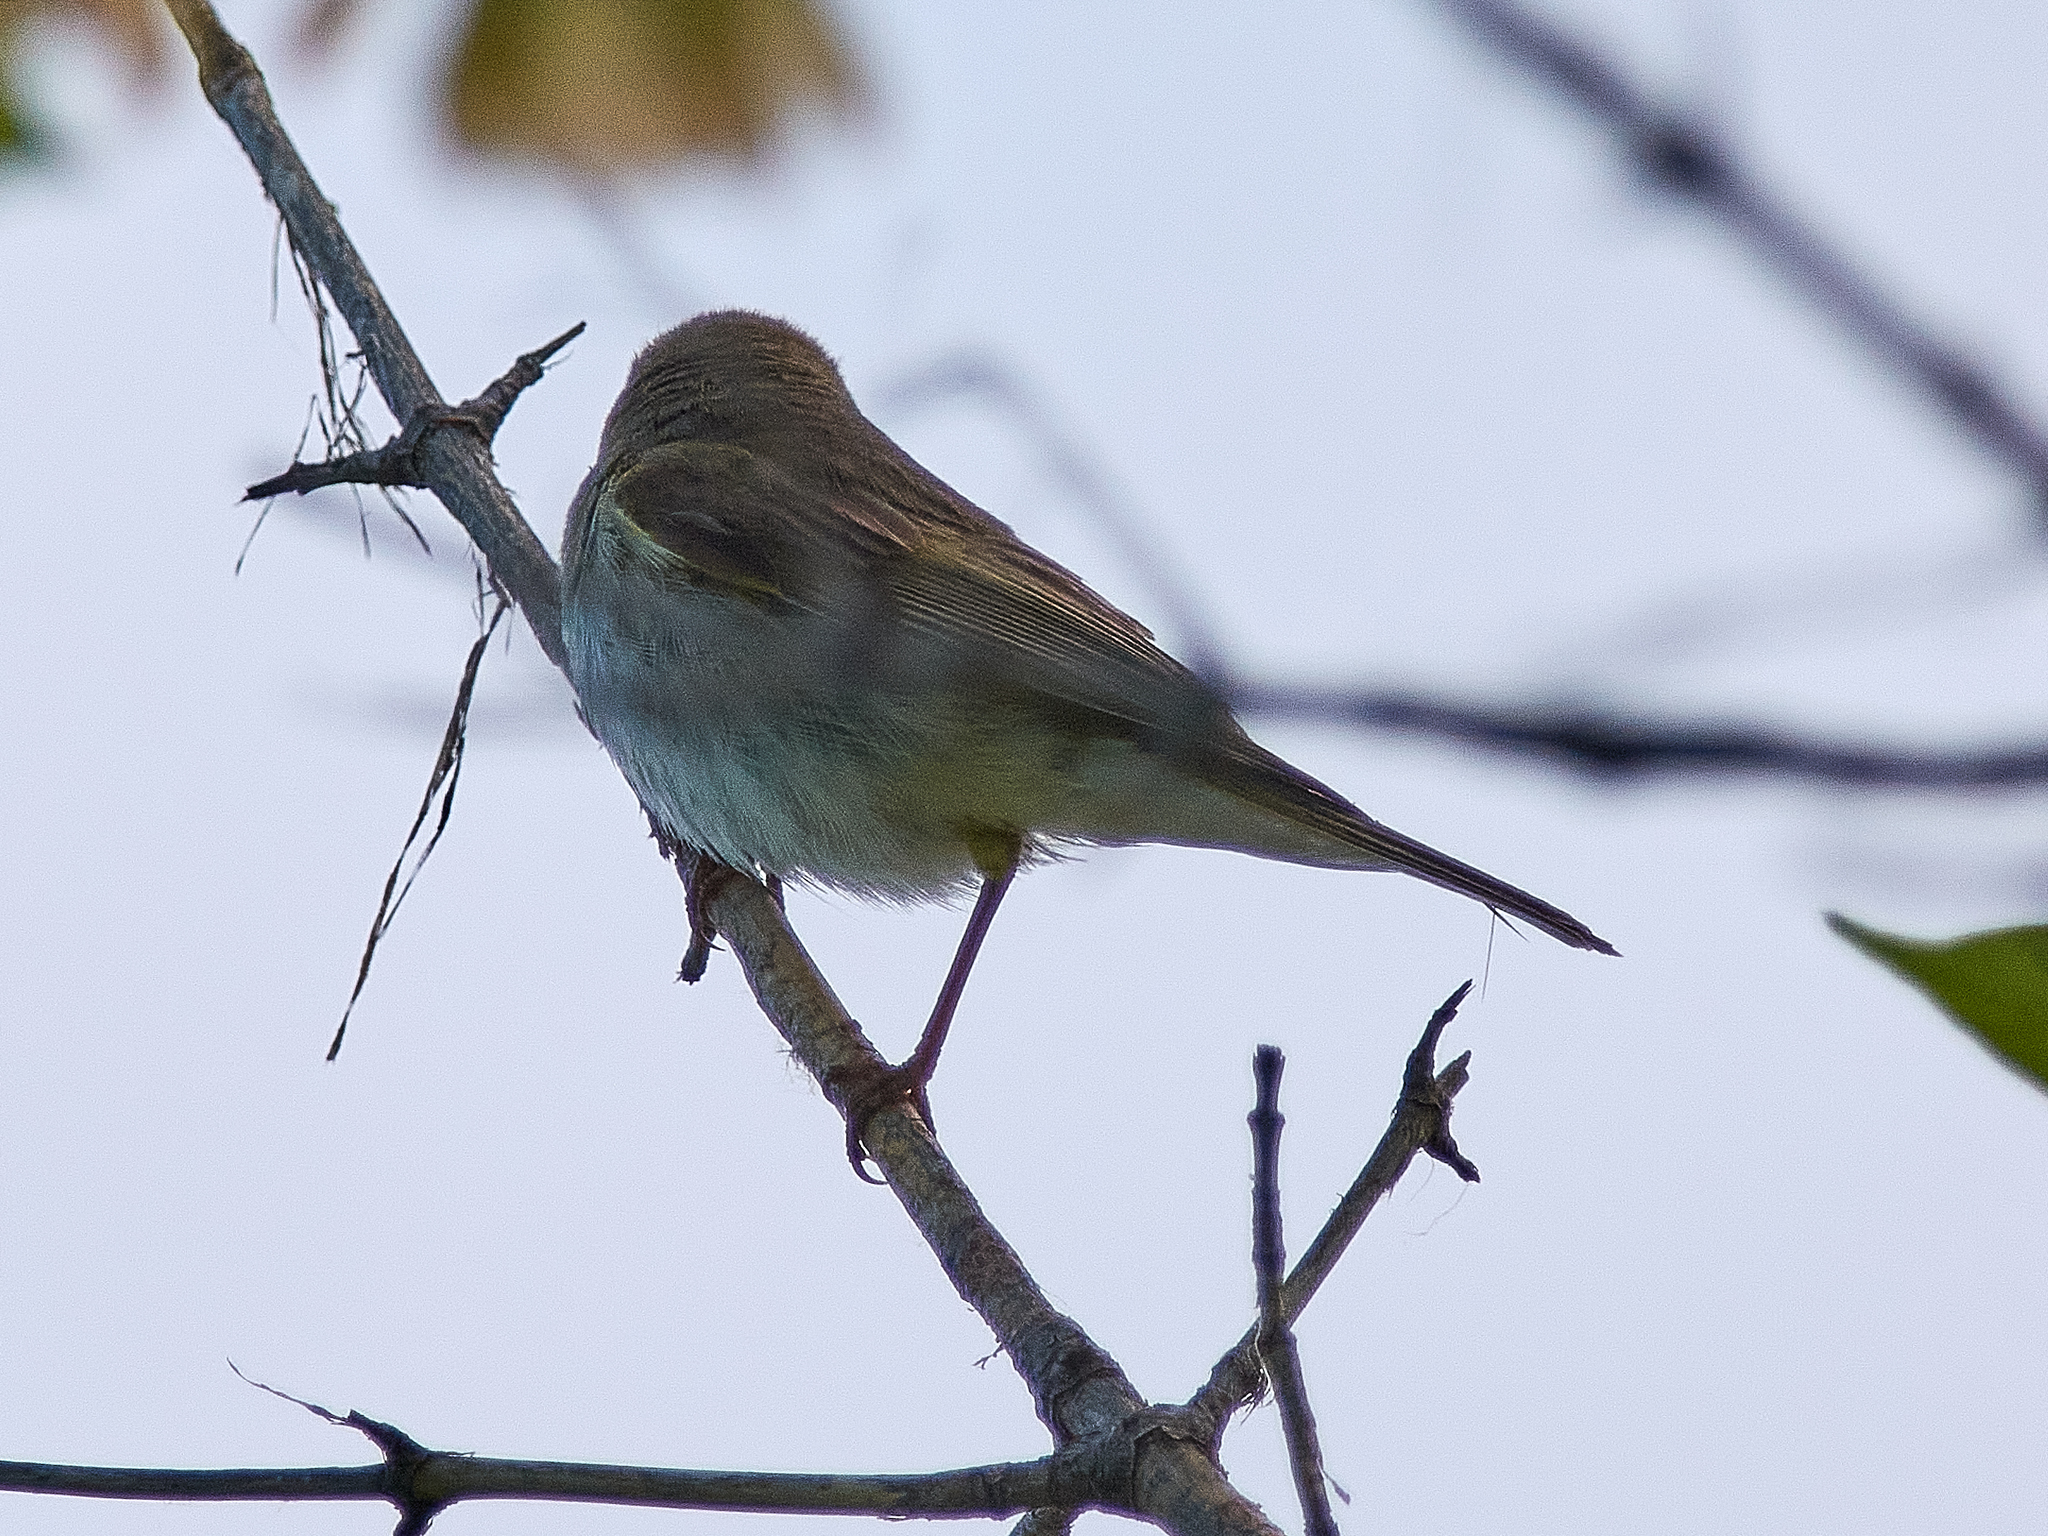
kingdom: Animalia
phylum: Chordata
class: Aves
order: Passeriformes
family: Phylloscopidae
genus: Phylloscopus
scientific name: Phylloscopus trochilus
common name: Willow warbler
